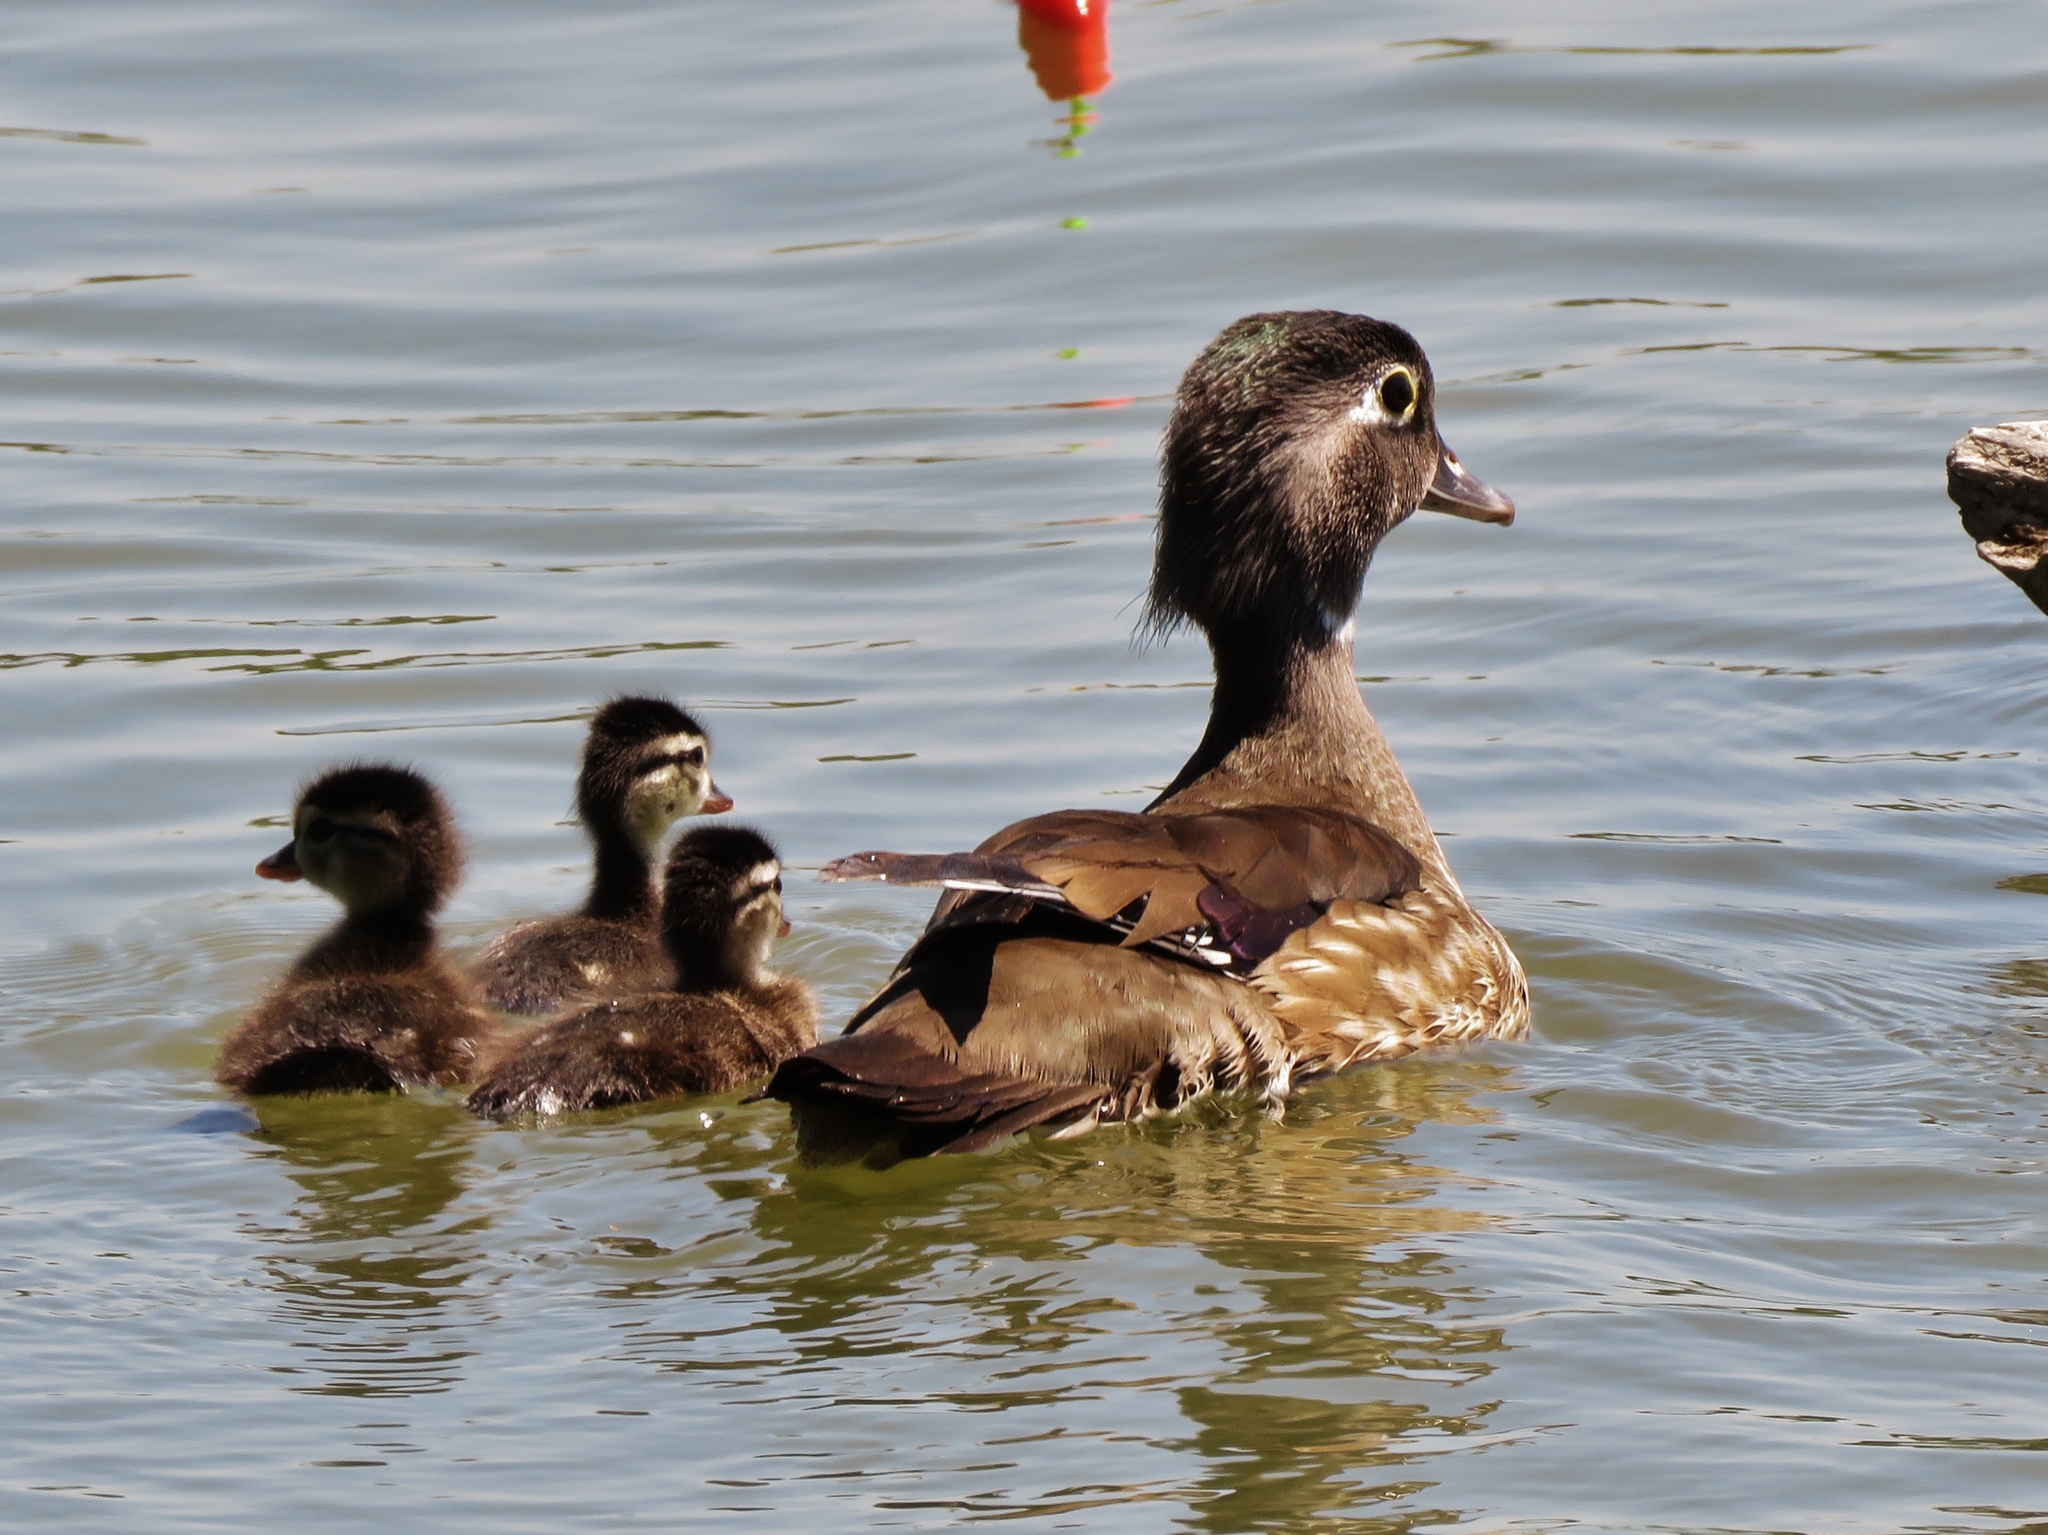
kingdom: Animalia
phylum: Chordata
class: Aves
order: Anseriformes
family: Anatidae
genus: Aix
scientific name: Aix sponsa
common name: Wood duck
